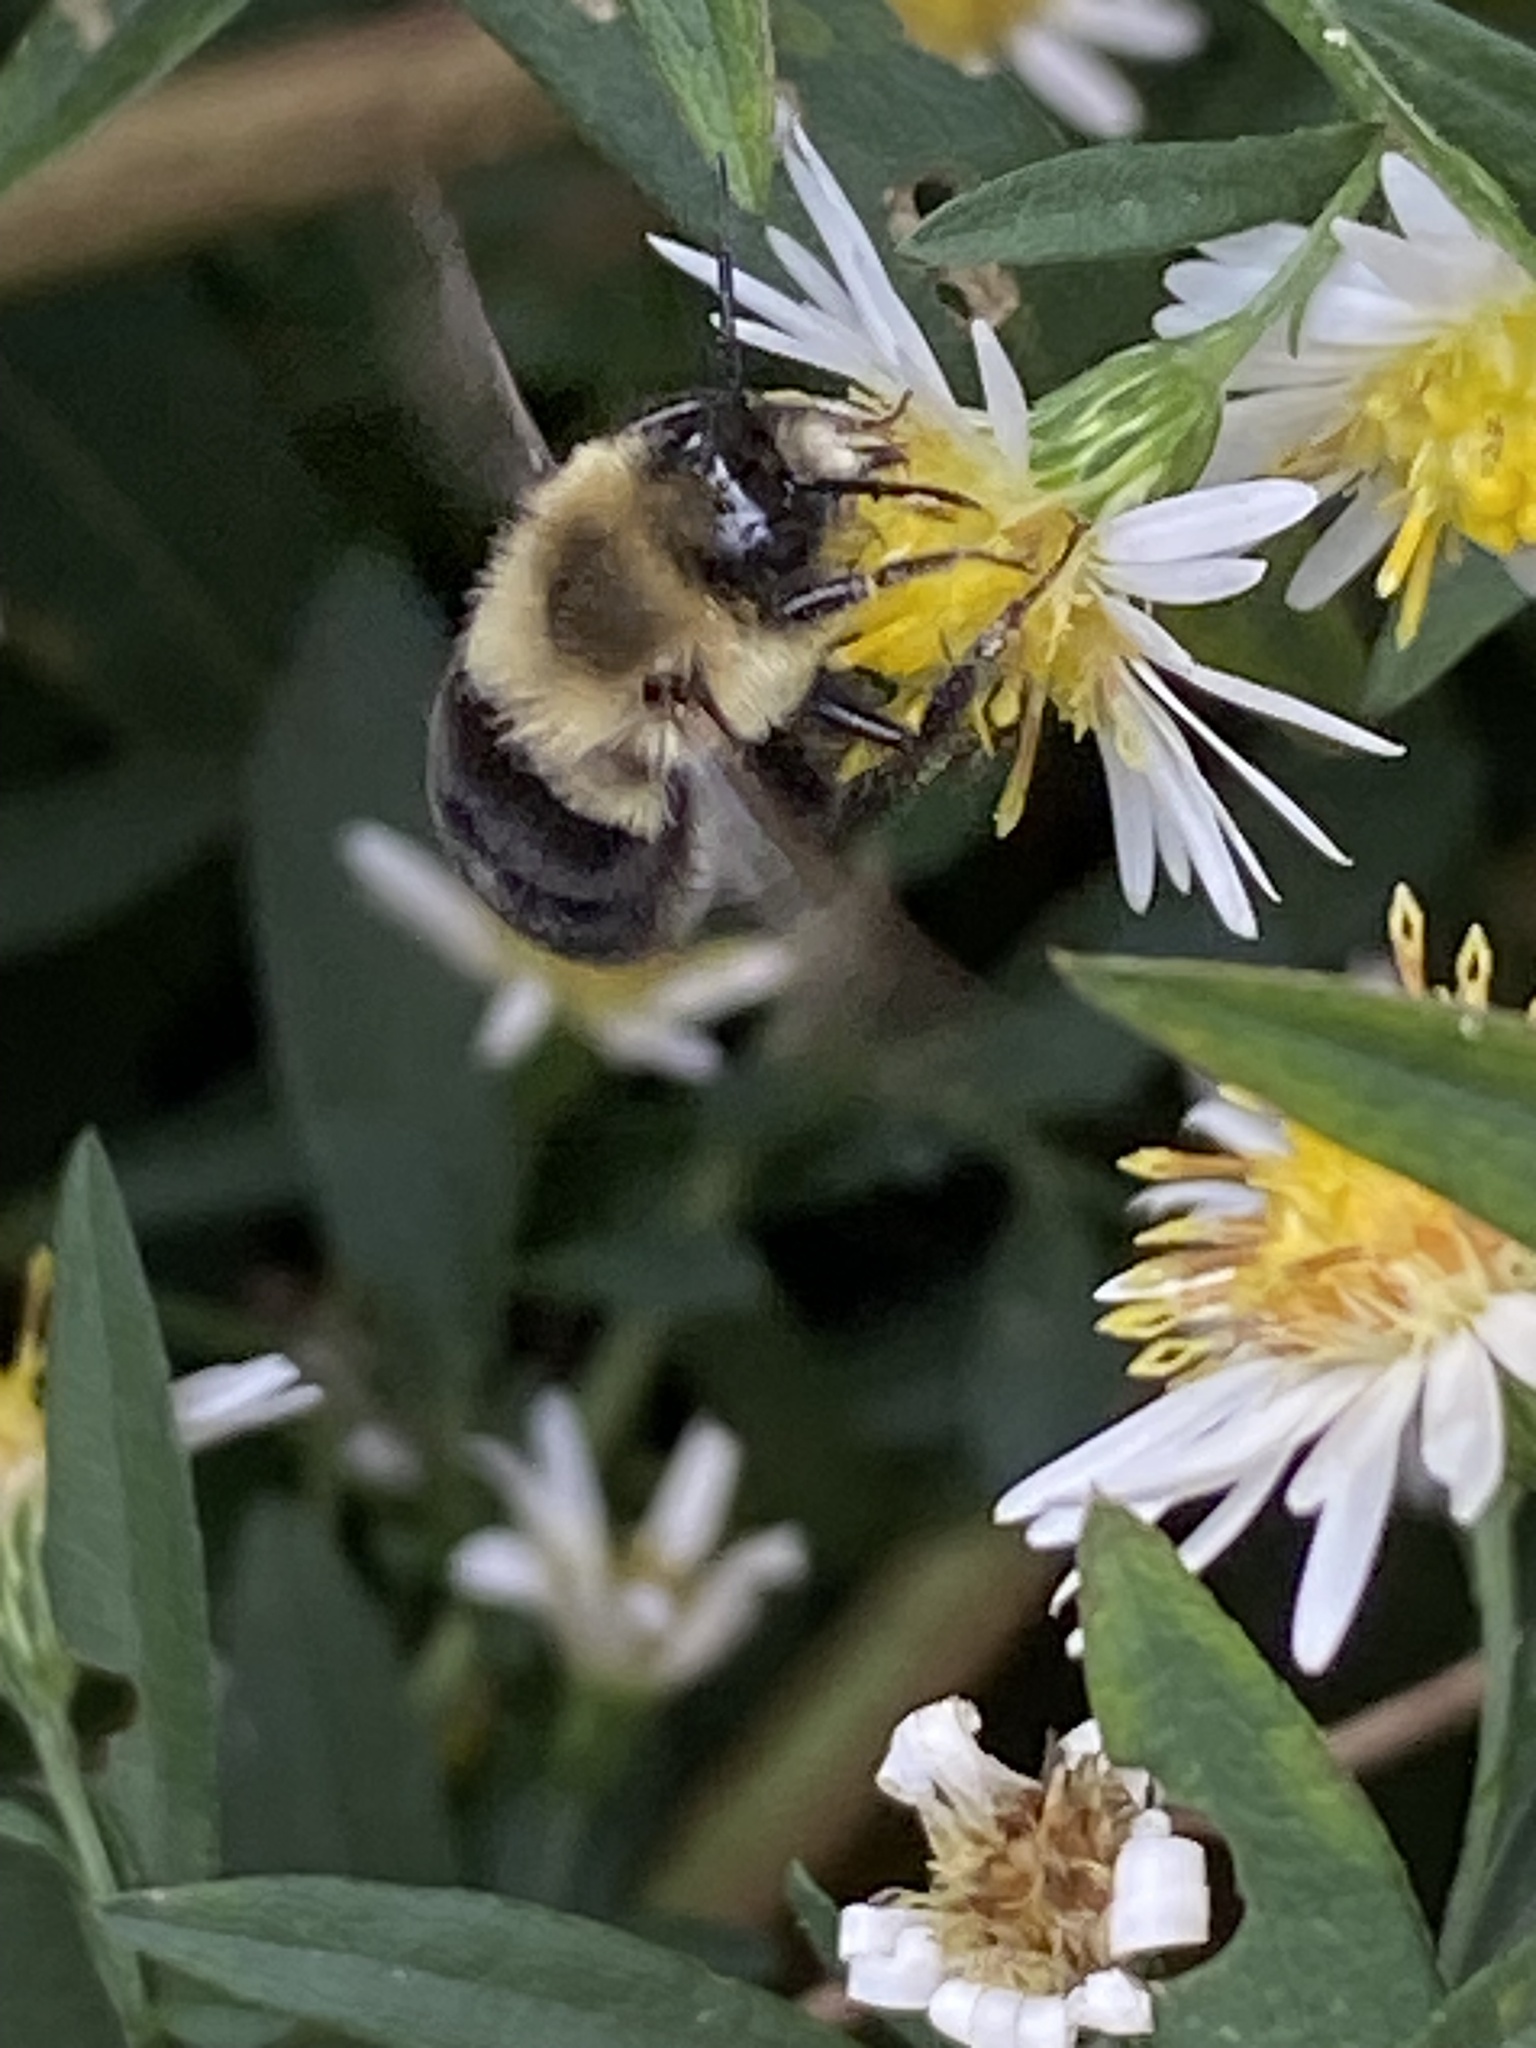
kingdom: Animalia
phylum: Arthropoda
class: Insecta
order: Hymenoptera
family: Apidae
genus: Bombus
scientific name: Bombus impatiens
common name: Common eastern bumble bee
